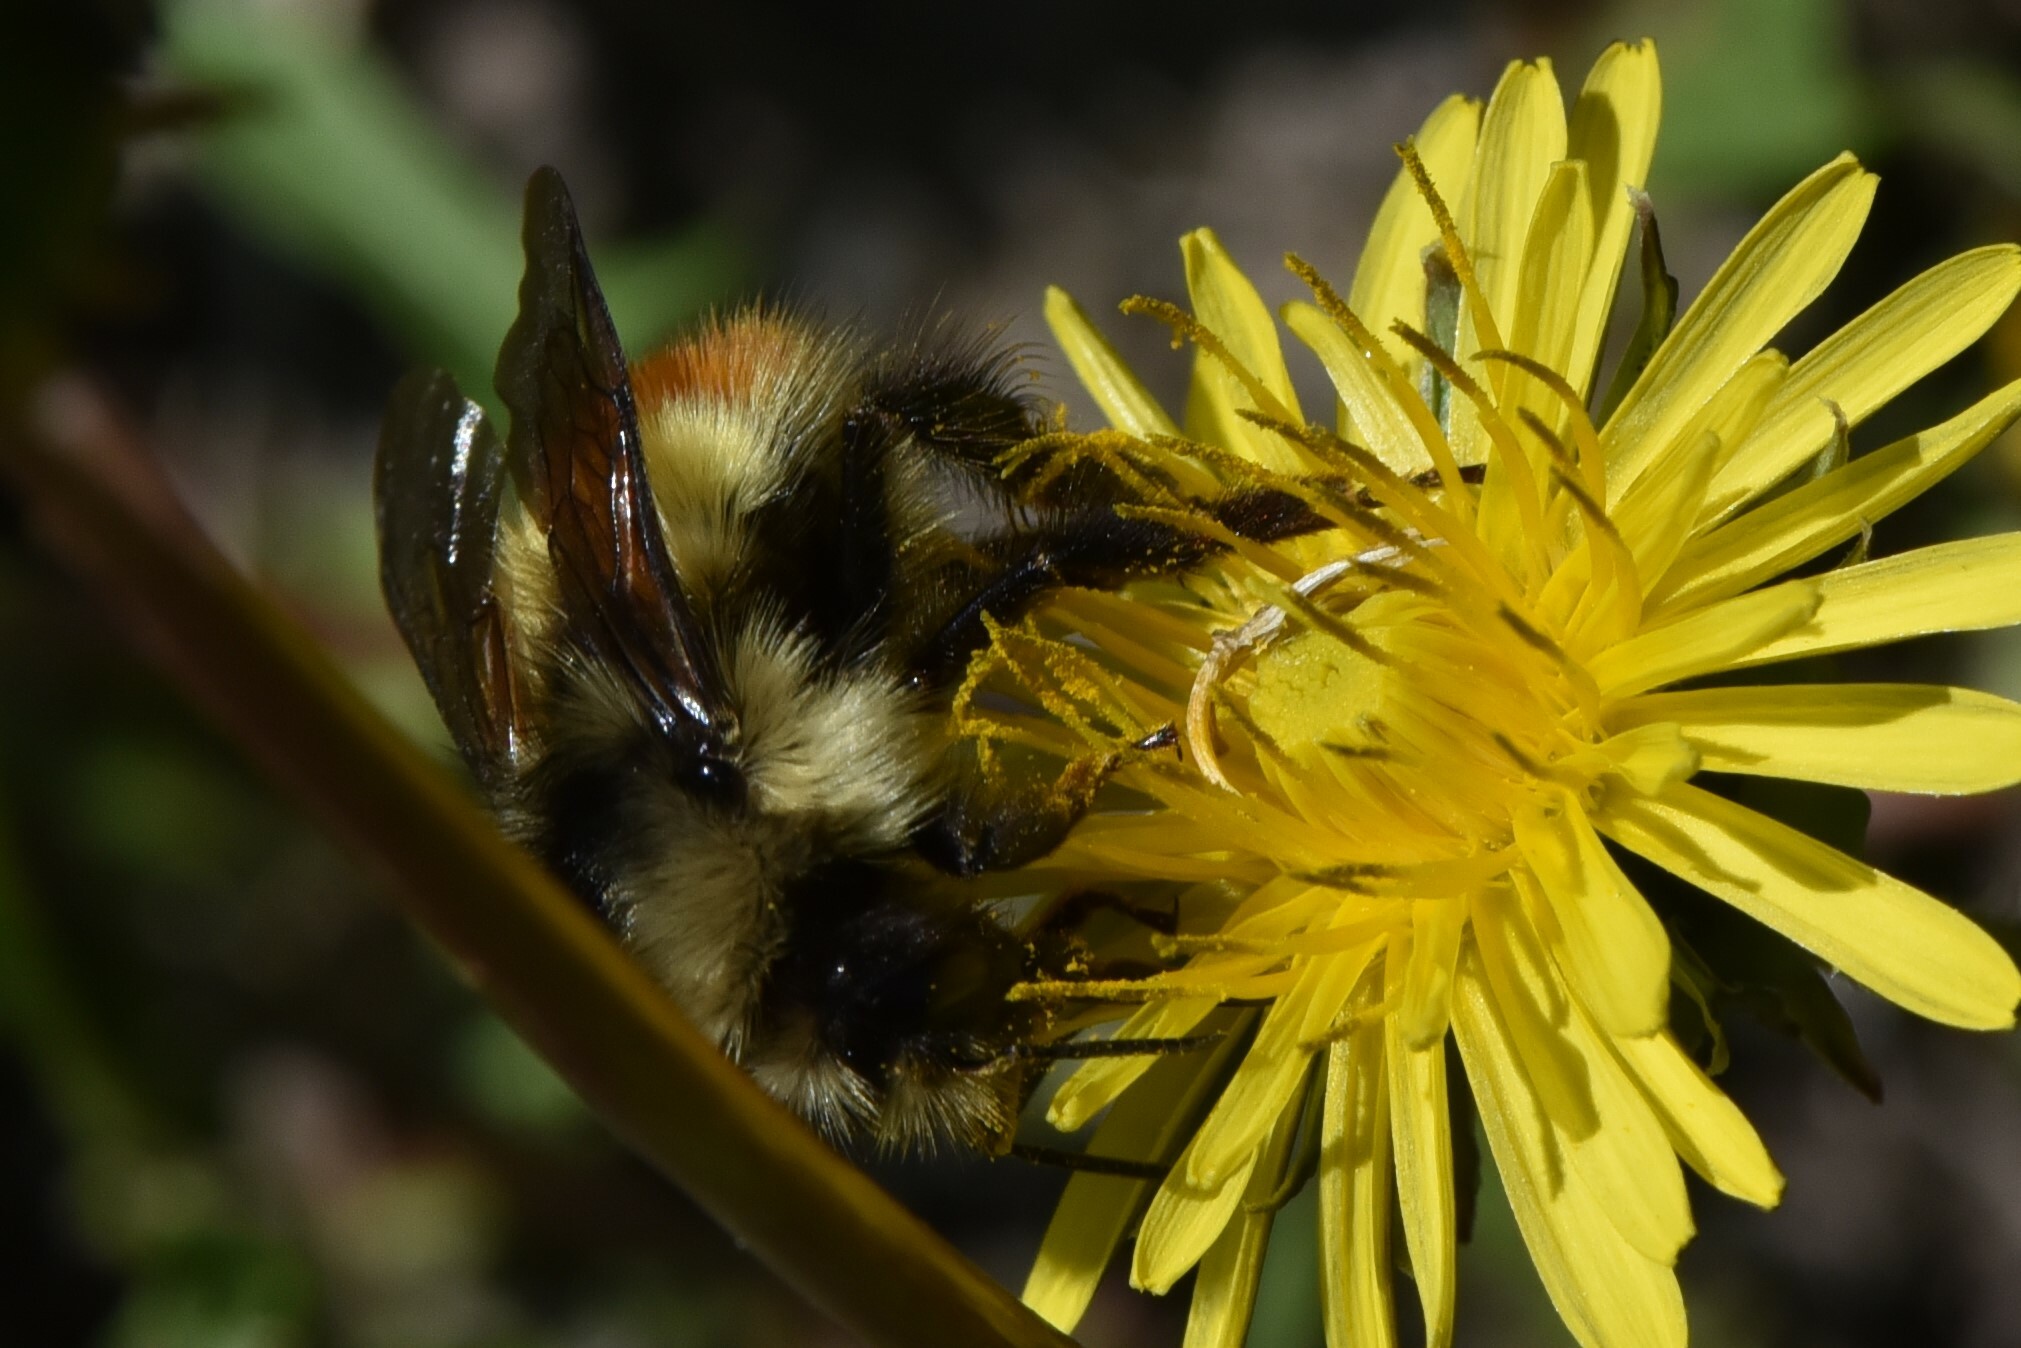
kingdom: Animalia
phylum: Arthropoda
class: Insecta
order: Hymenoptera
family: Apidae
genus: Bombus
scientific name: Bombus centralis
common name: Central bumble bee
